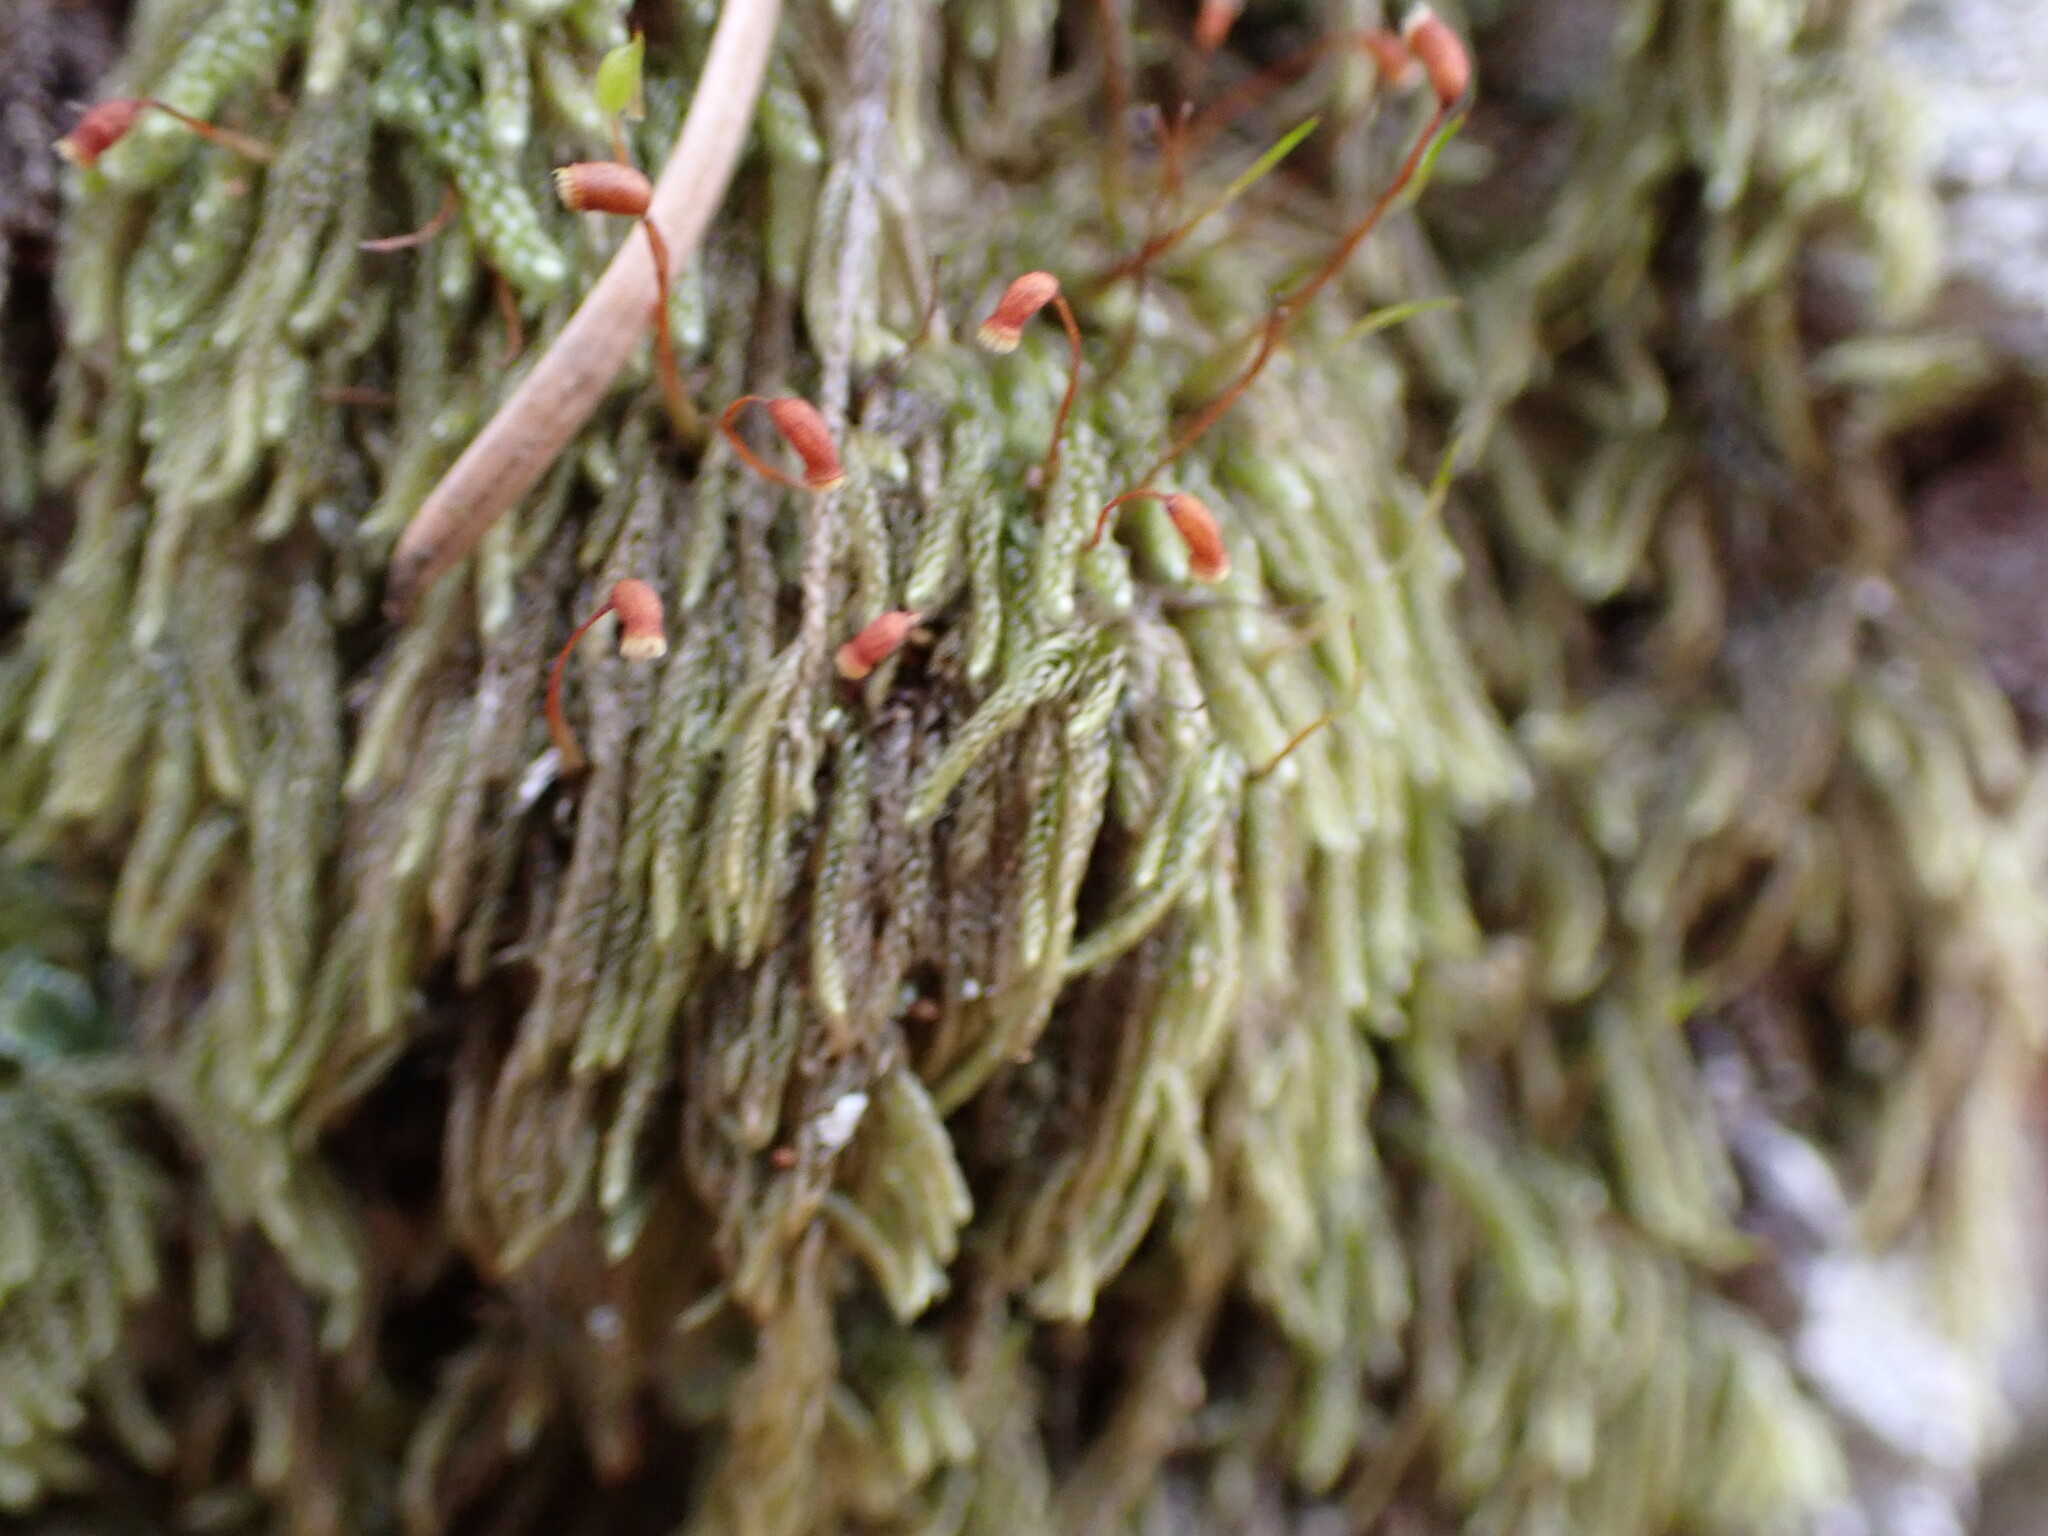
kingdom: Plantae
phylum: Bryophyta
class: Bryopsida
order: Hypnales
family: Pylaisiadelphaceae
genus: Trochophyllohypnum
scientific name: Trochophyllohypnum circinale
